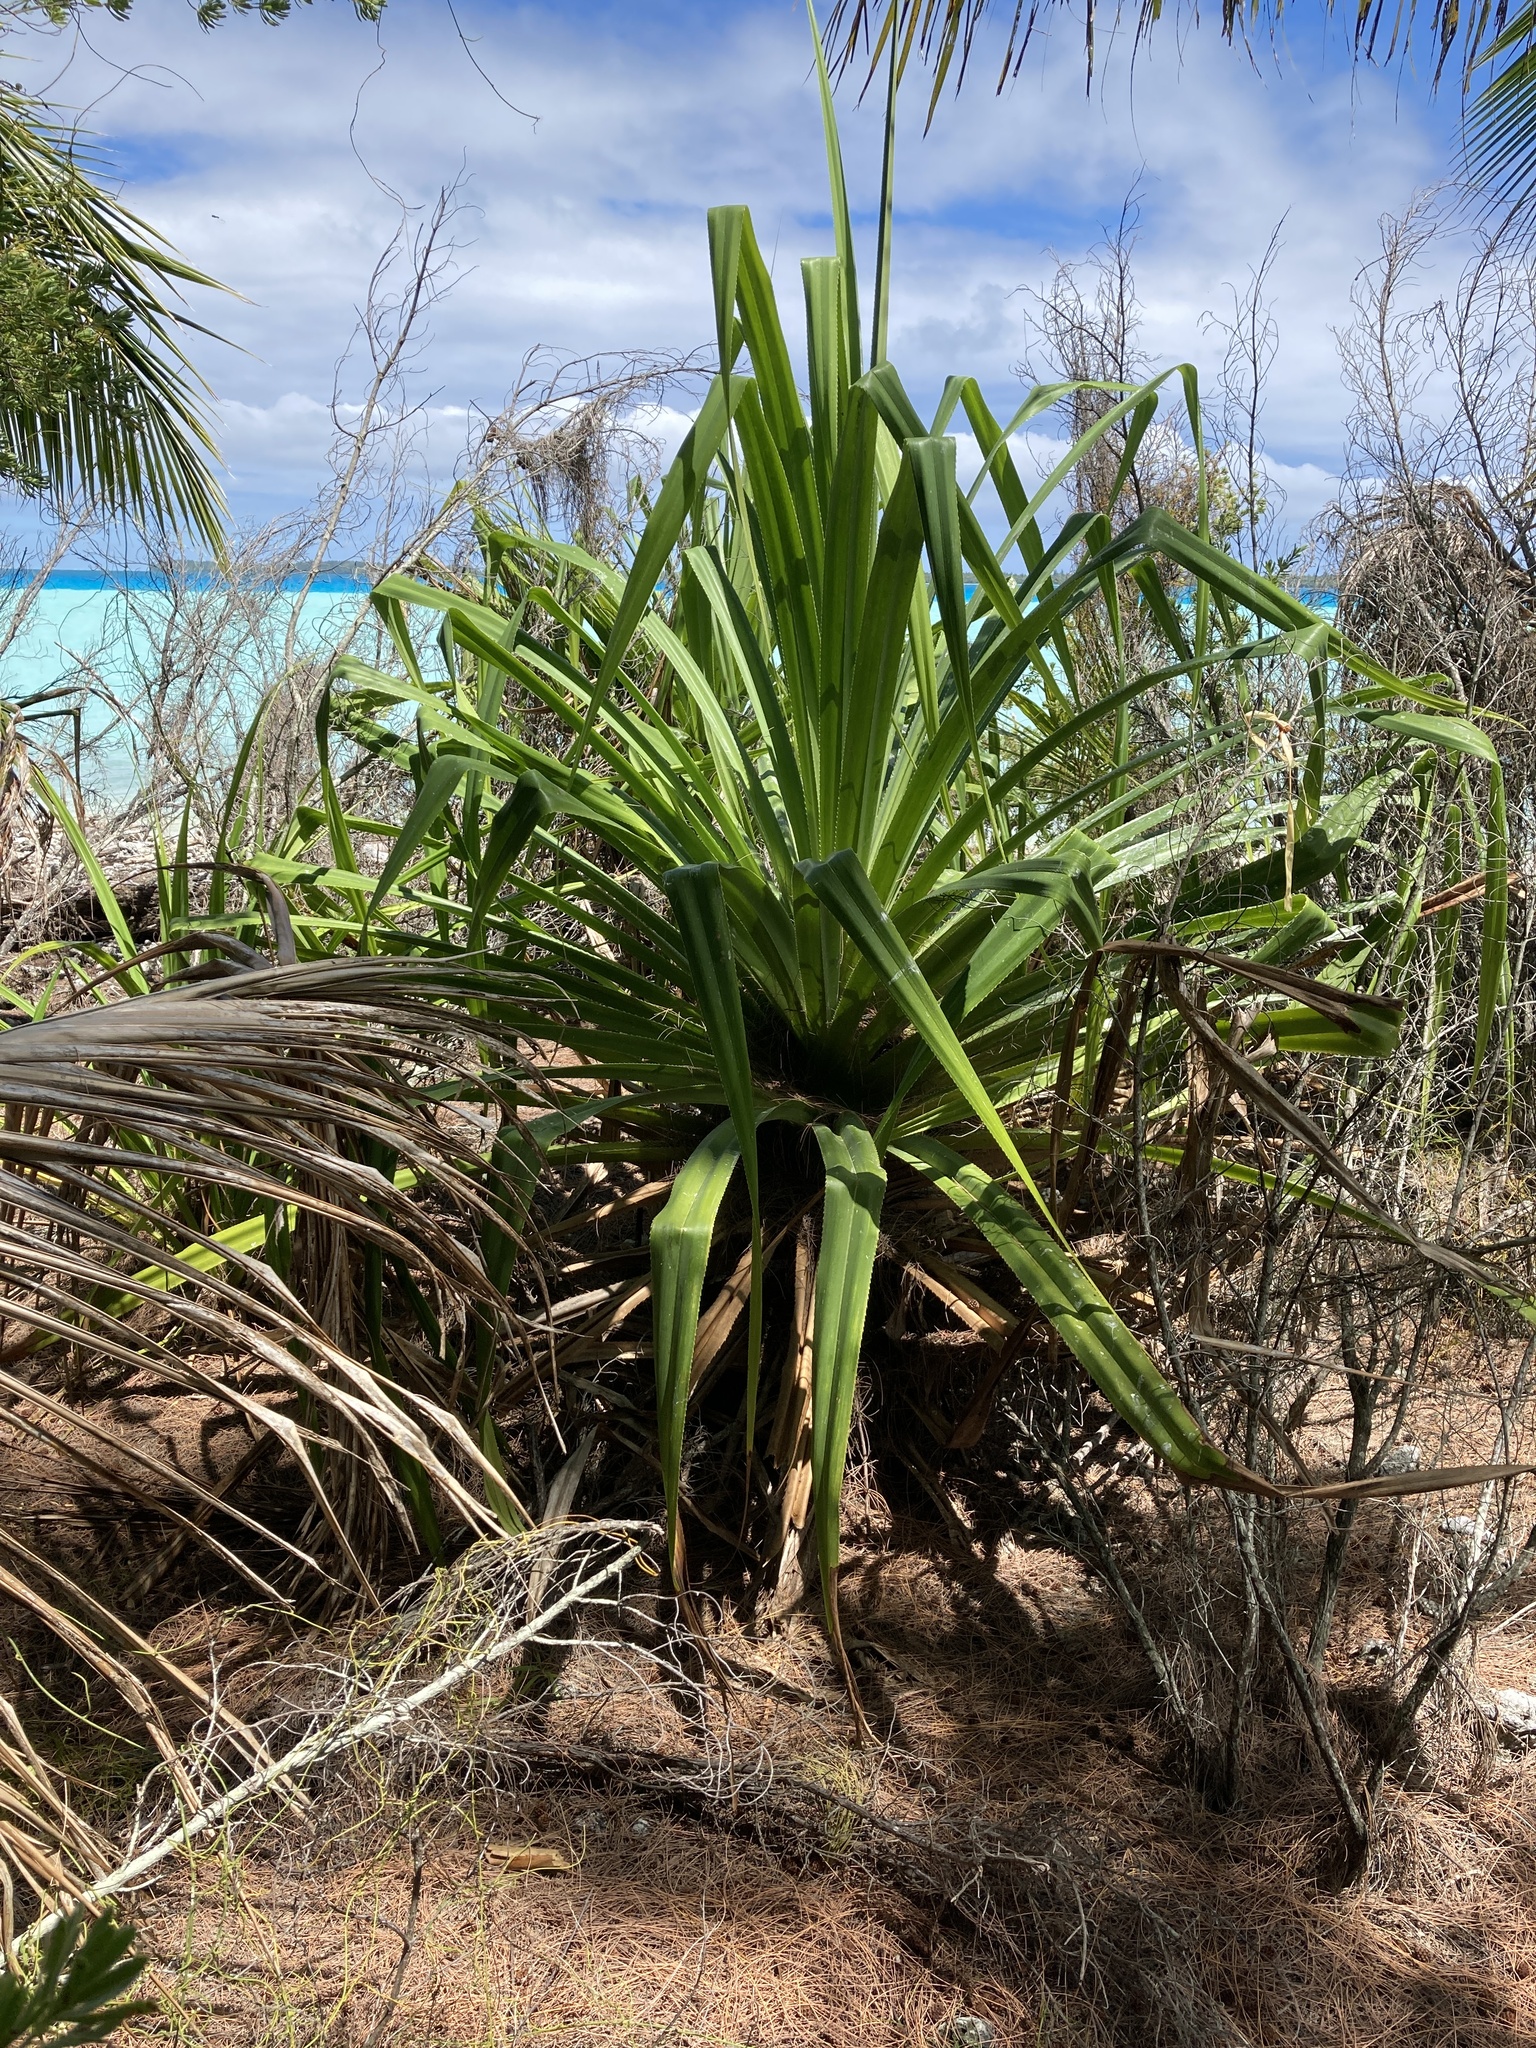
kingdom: Plantae
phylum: Tracheophyta
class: Liliopsida
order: Pandanales
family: Pandanaceae
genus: Pandanus
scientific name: Pandanus tectorius
